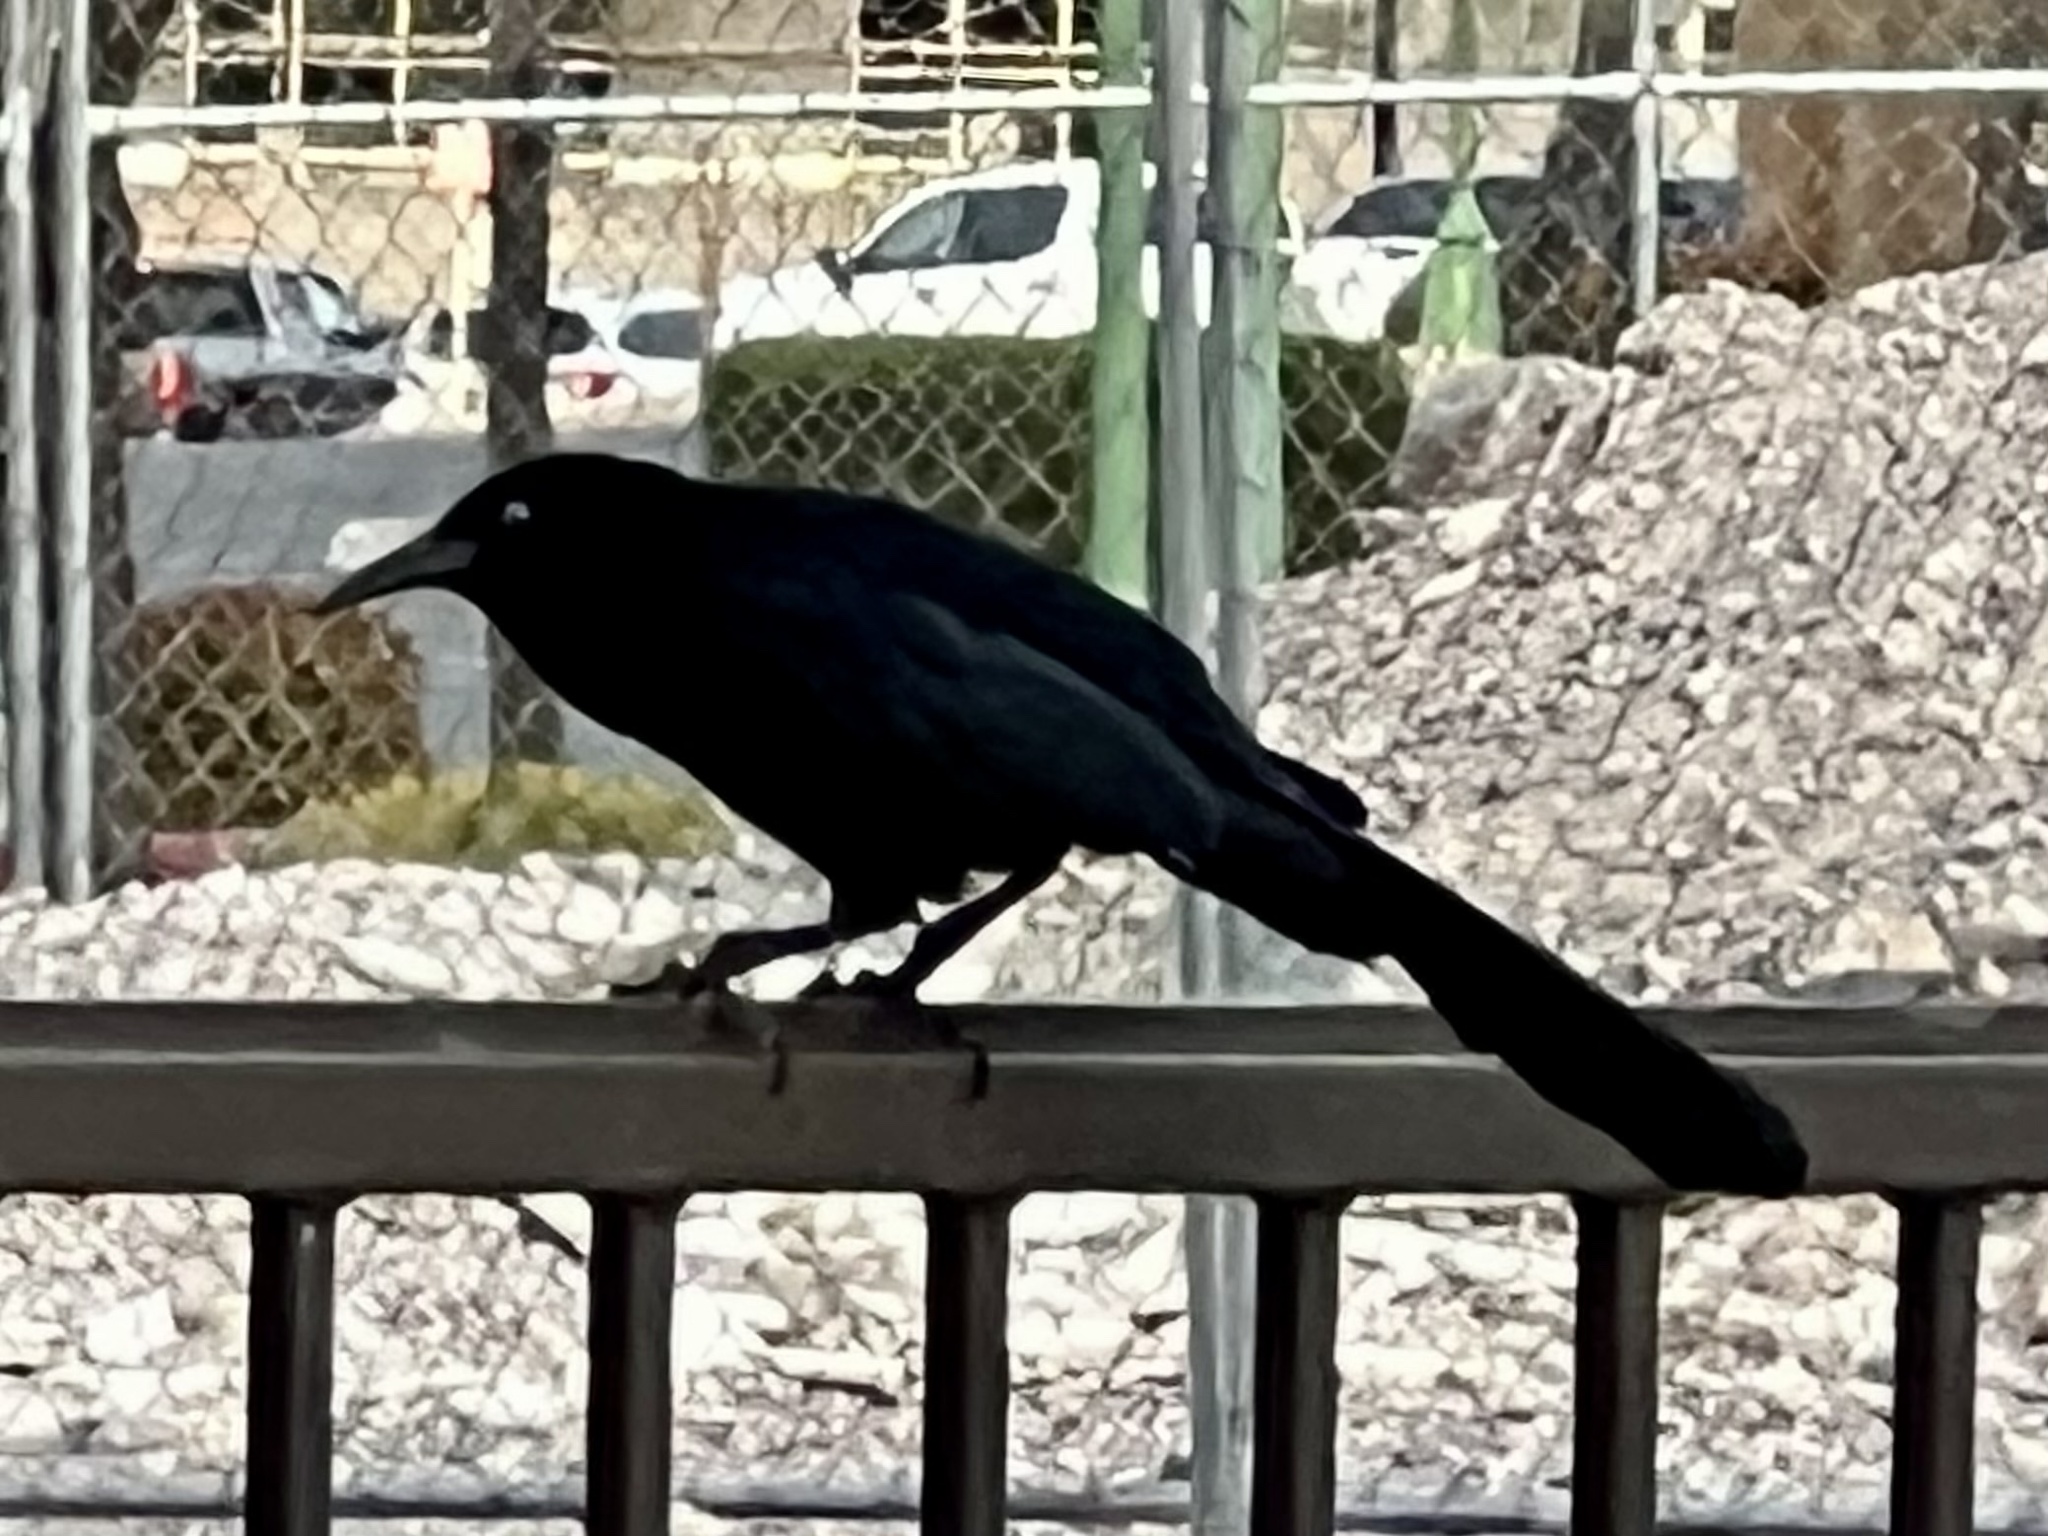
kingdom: Animalia
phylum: Chordata
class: Aves
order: Passeriformes
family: Icteridae
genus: Quiscalus
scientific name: Quiscalus mexicanus
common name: Great-tailed grackle
